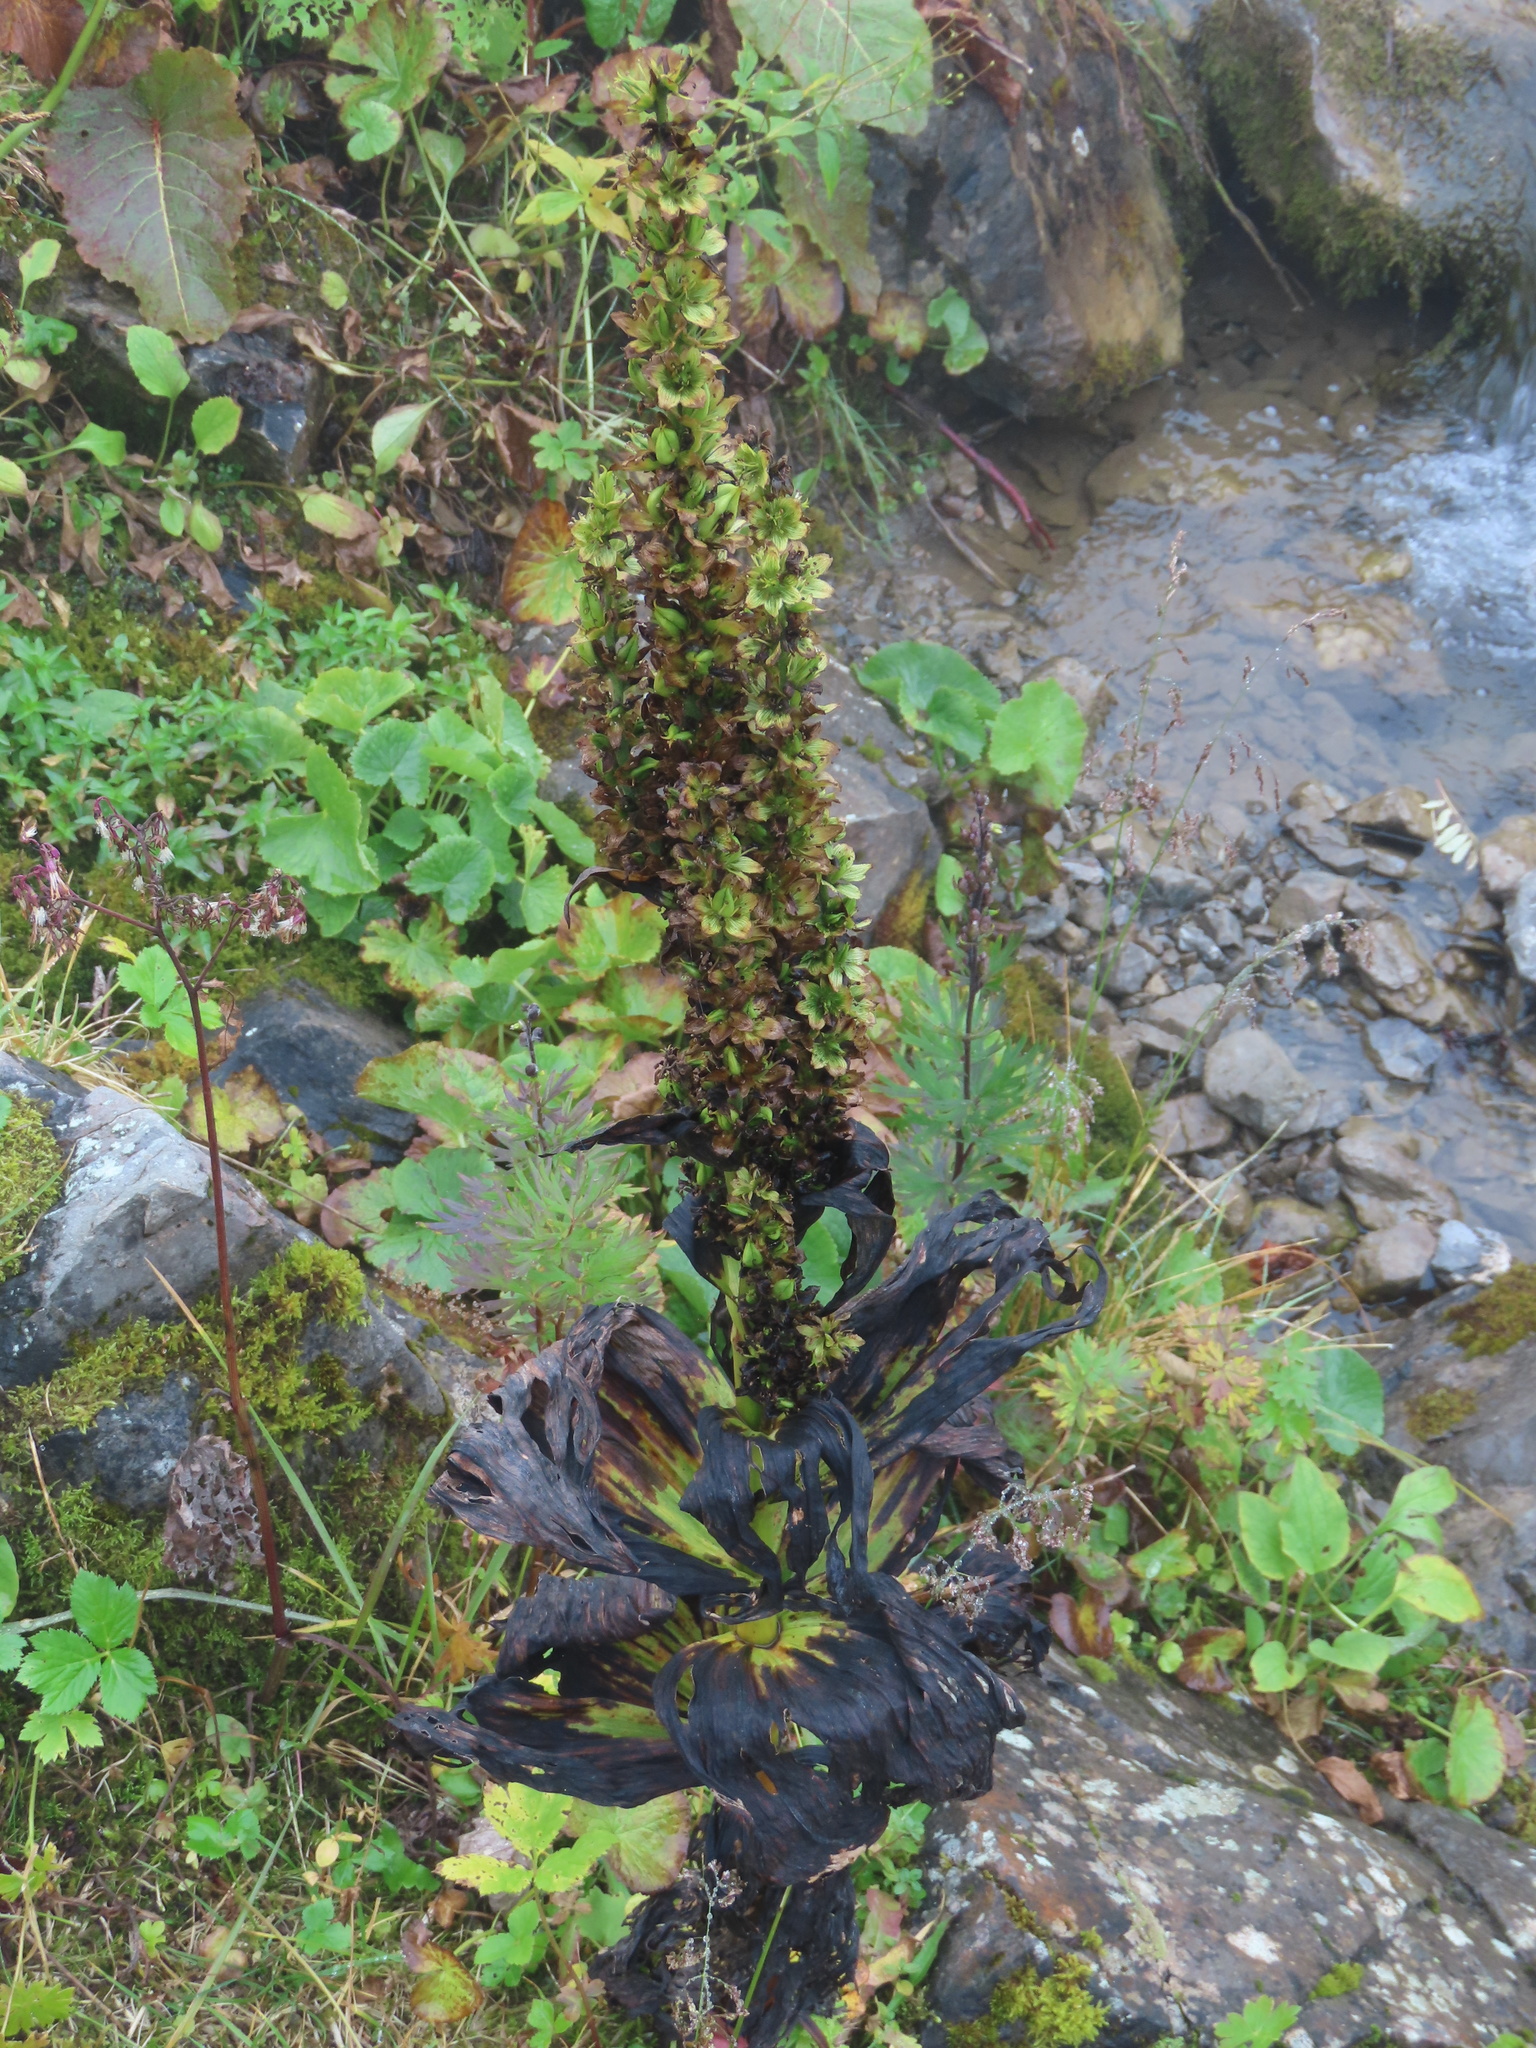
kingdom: Plantae
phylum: Tracheophyta
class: Liliopsida
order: Liliales
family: Melanthiaceae
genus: Veratrum
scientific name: Veratrum lobelianum
